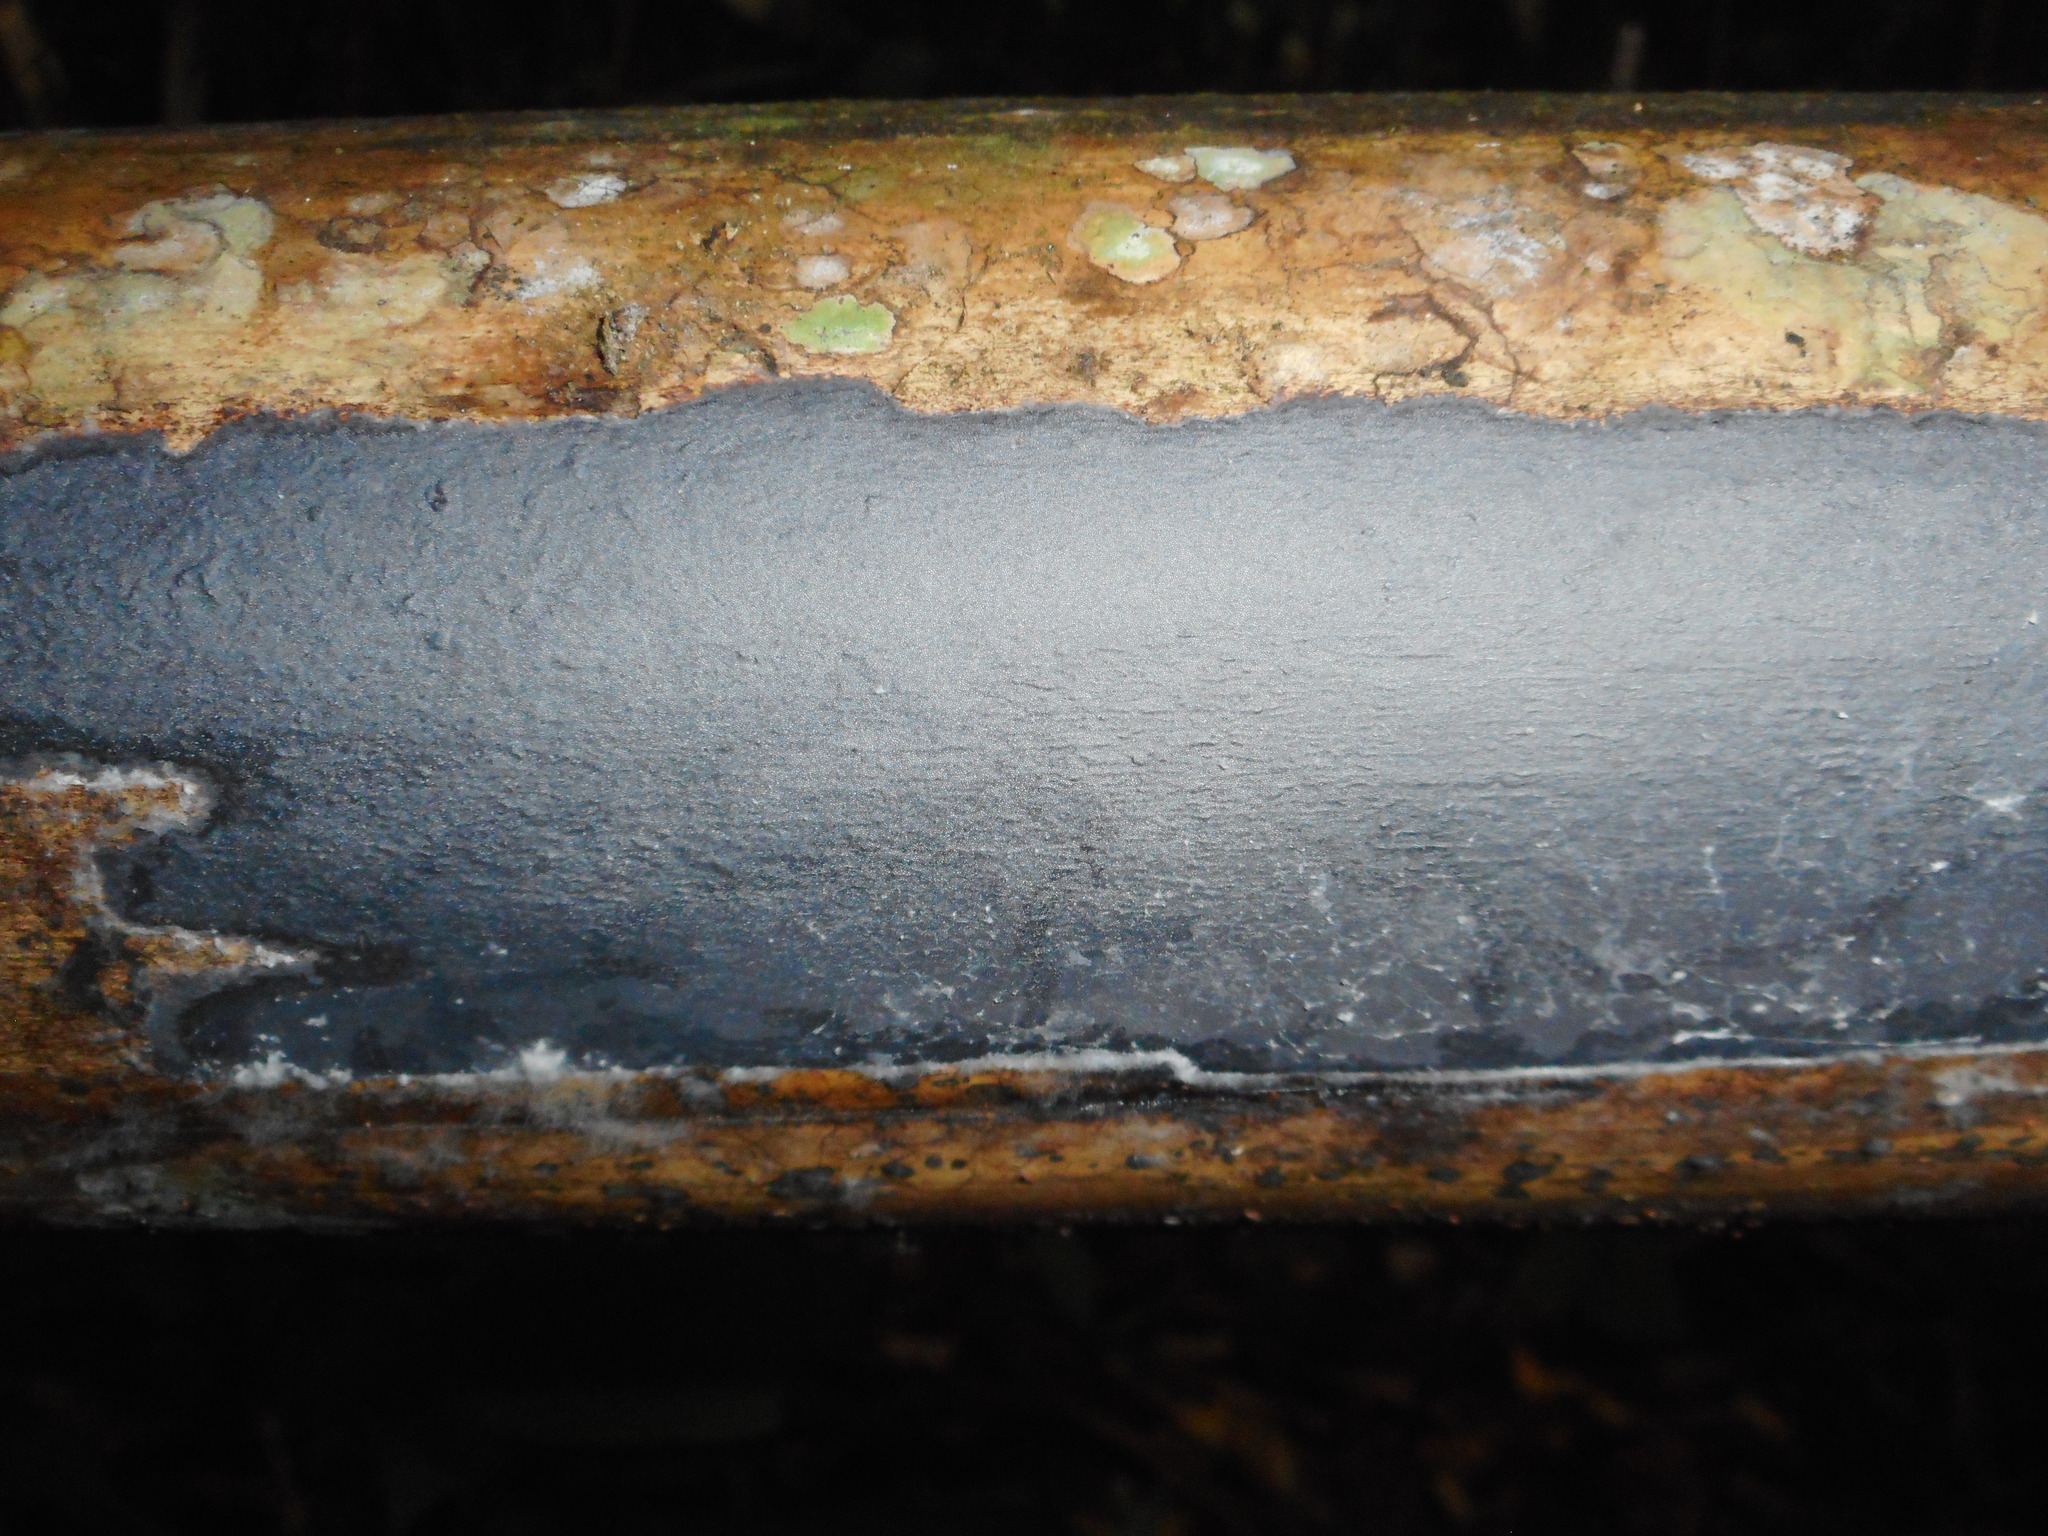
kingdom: Fungi
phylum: Basidiomycota
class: Agaricomycetes
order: Polyporales
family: Polyporaceae
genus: Grammothele
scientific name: Grammothele fuligo
